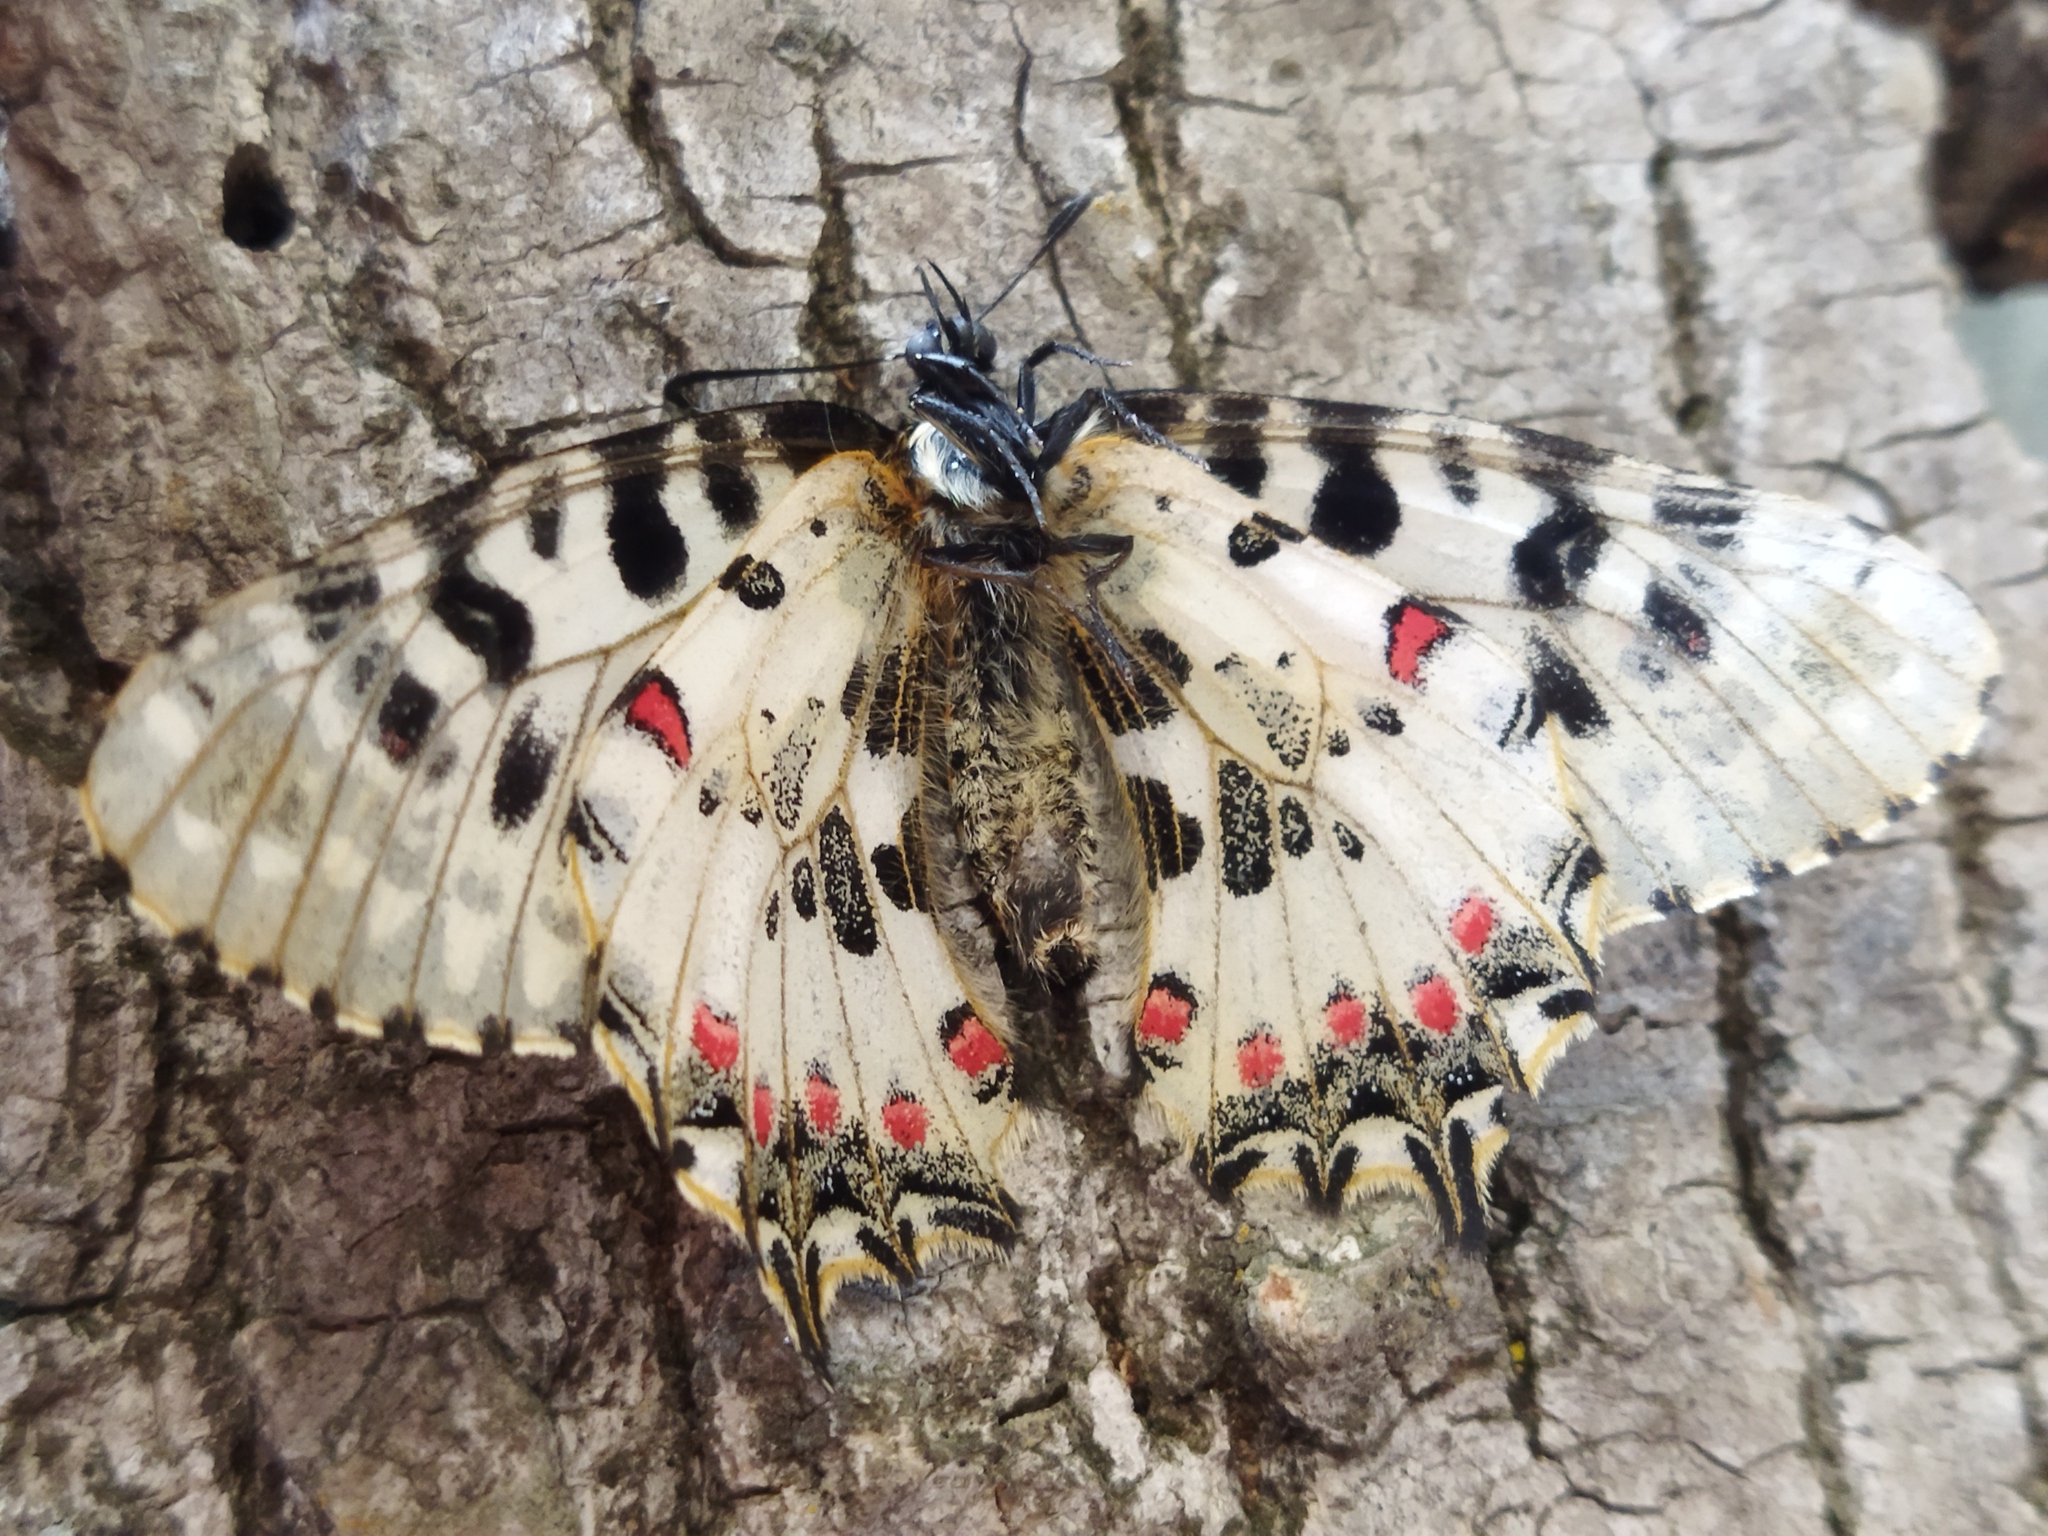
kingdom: Animalia
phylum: Arthropoda
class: Insecta
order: Lepidoptera
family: Papilionidae
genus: Zerynthia
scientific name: Zerynthia cerisy
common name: Eastern festoon
